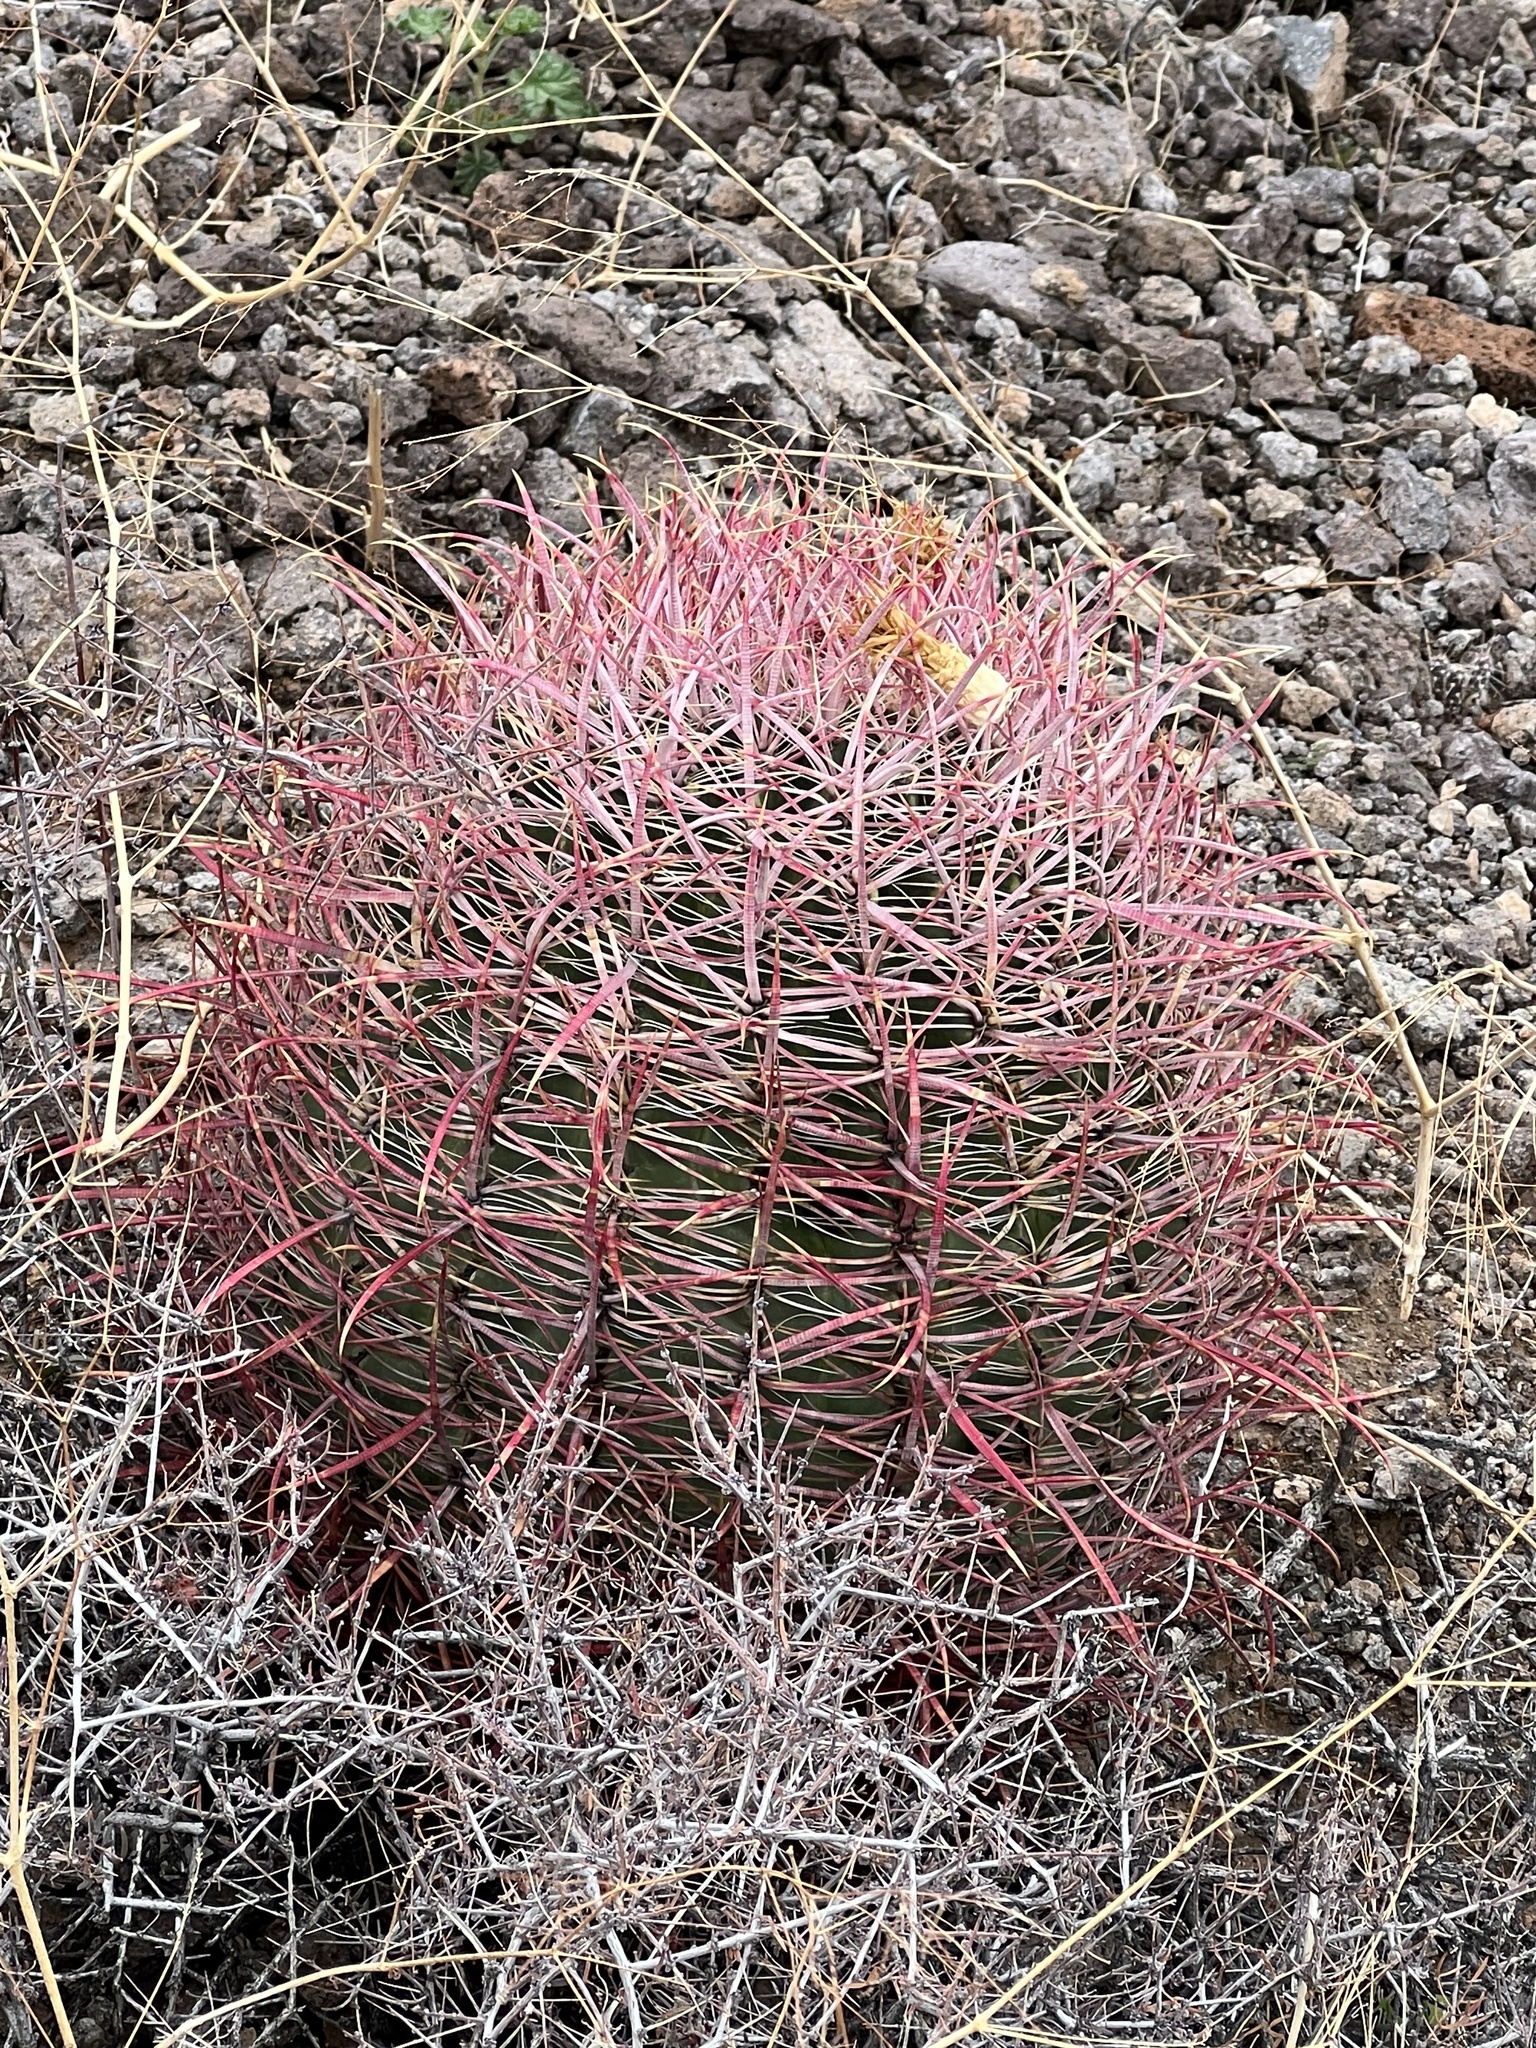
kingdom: Plantae
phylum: Tracheophyta
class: Magnoliopsida
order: Caryophyllales
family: Cactaceae
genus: Ferocactus
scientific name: Ferocactus cylindraceus
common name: California barrel cactus
